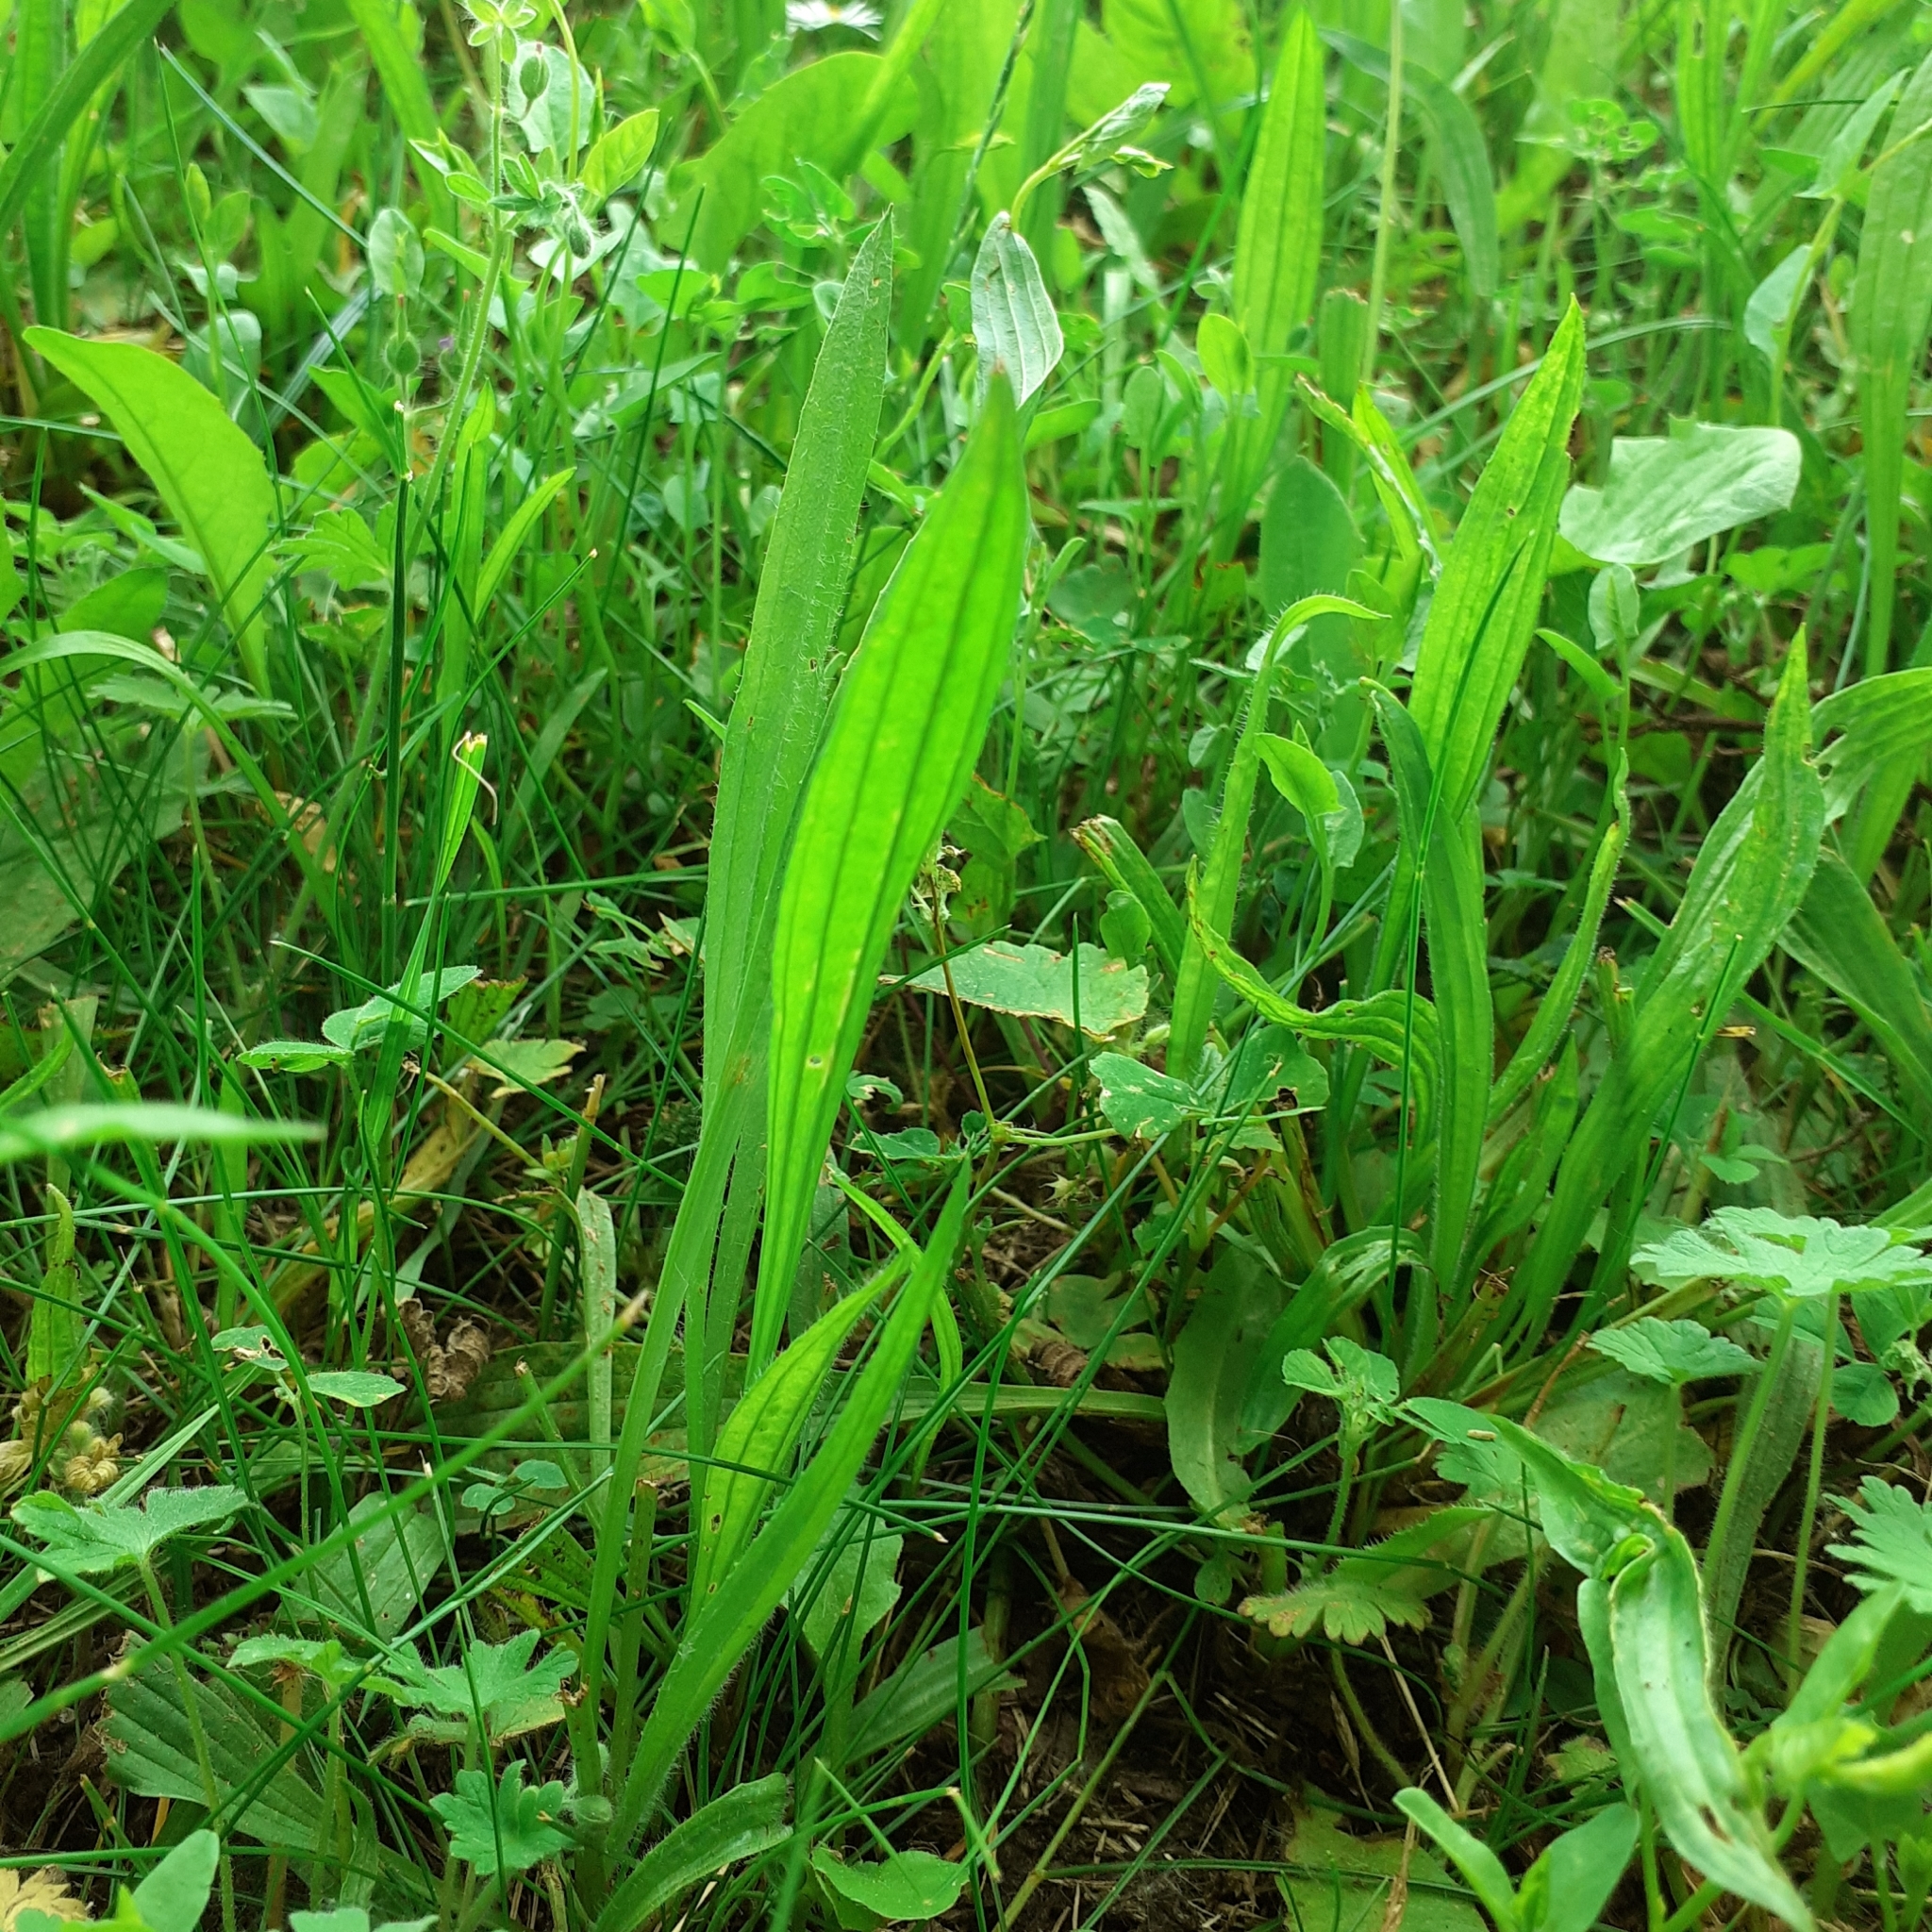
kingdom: Plantae
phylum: Tracheophyta
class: Magnoliopsida
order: Lamiales
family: Plantaginaceae
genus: Plantago
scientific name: Plantago lanceolata
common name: Ribwort plantain
